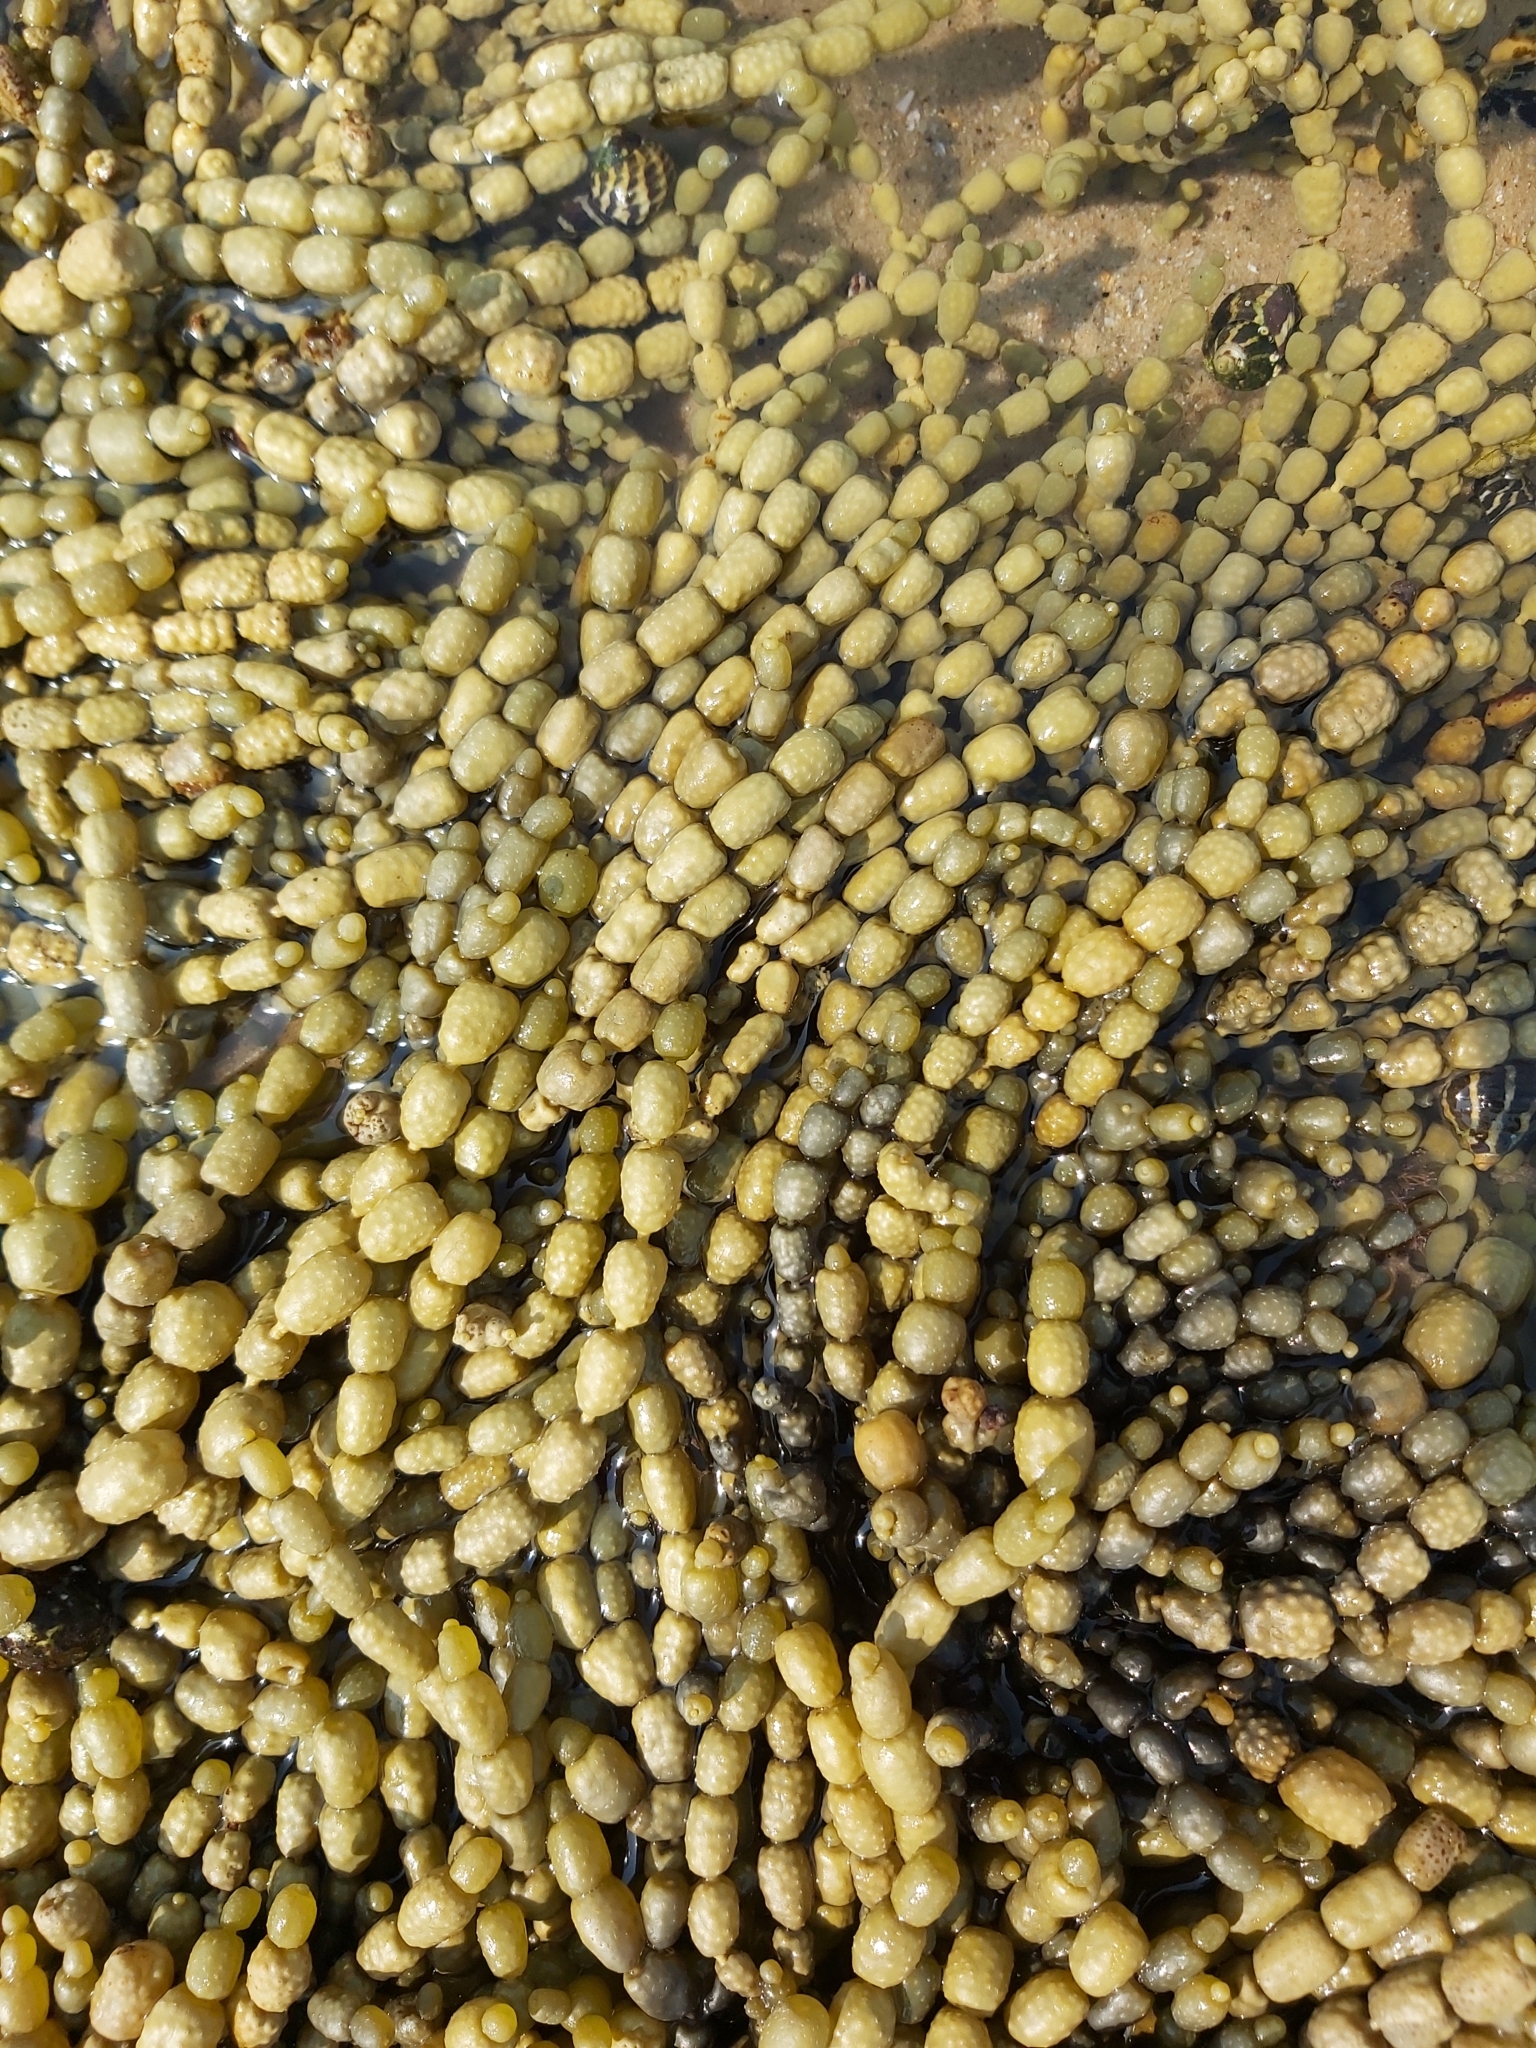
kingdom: Chromista
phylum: Ochrophyta
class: Phaeophyceae
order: Fucales
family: Hormosiraceae
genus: Hormosira
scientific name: Hormosira banksii
